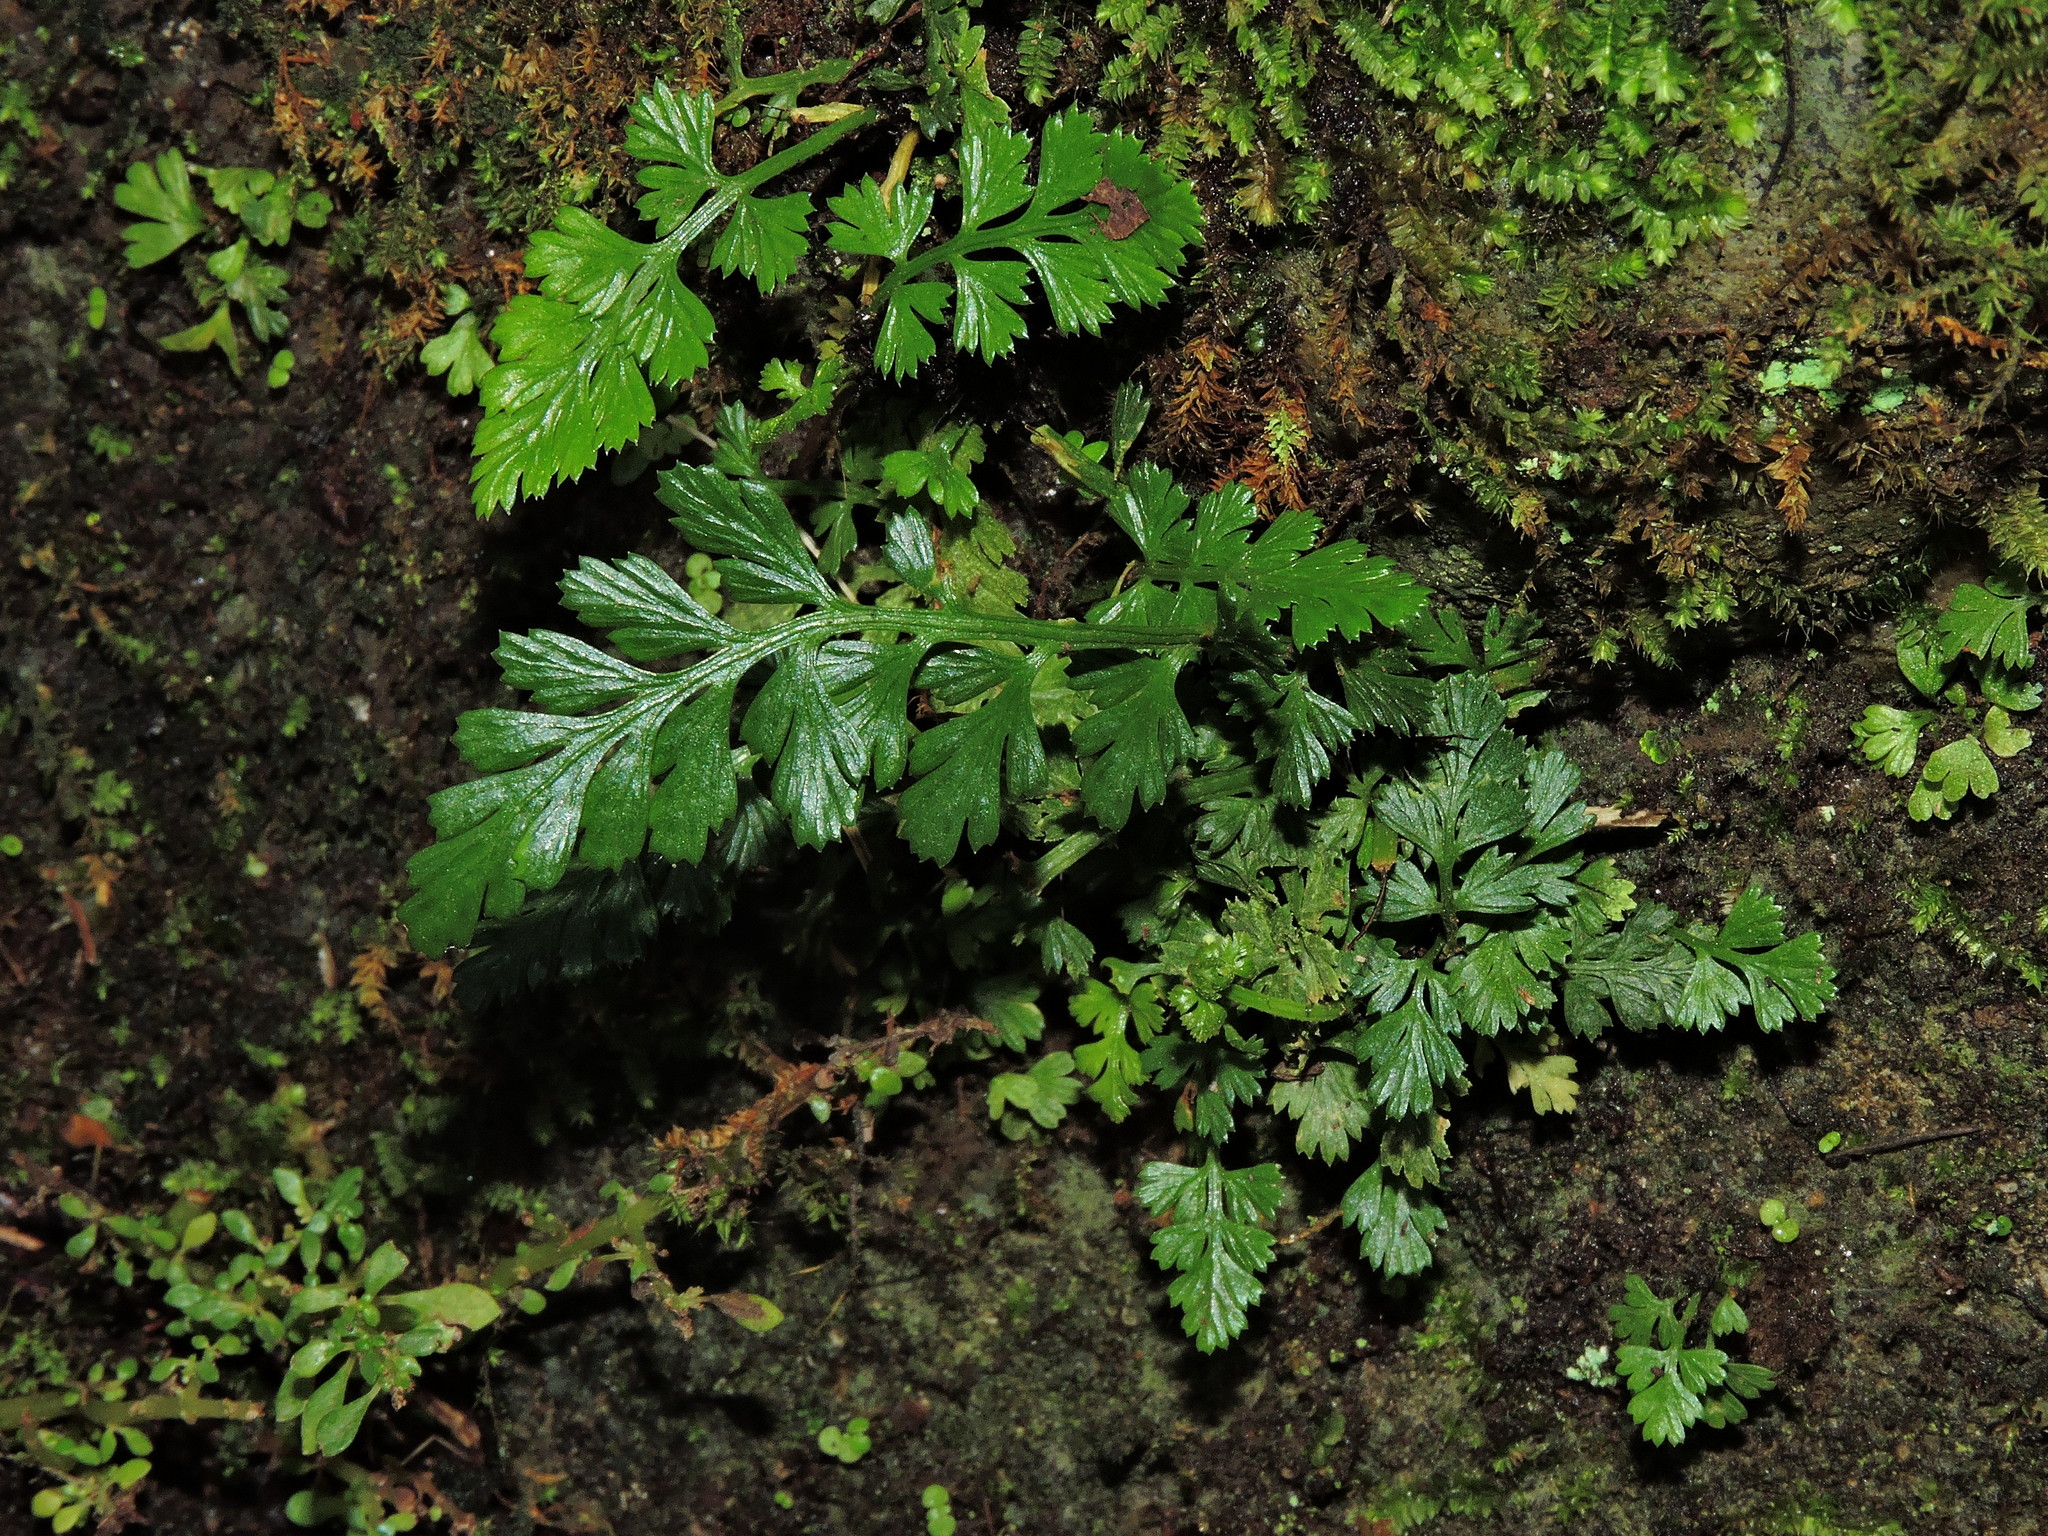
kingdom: Plantae
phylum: Tracheophyta
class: Polypodiopsida
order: Polypodiales
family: Aspleniaceae
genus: Asplenium
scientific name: Asplenium sarelii
